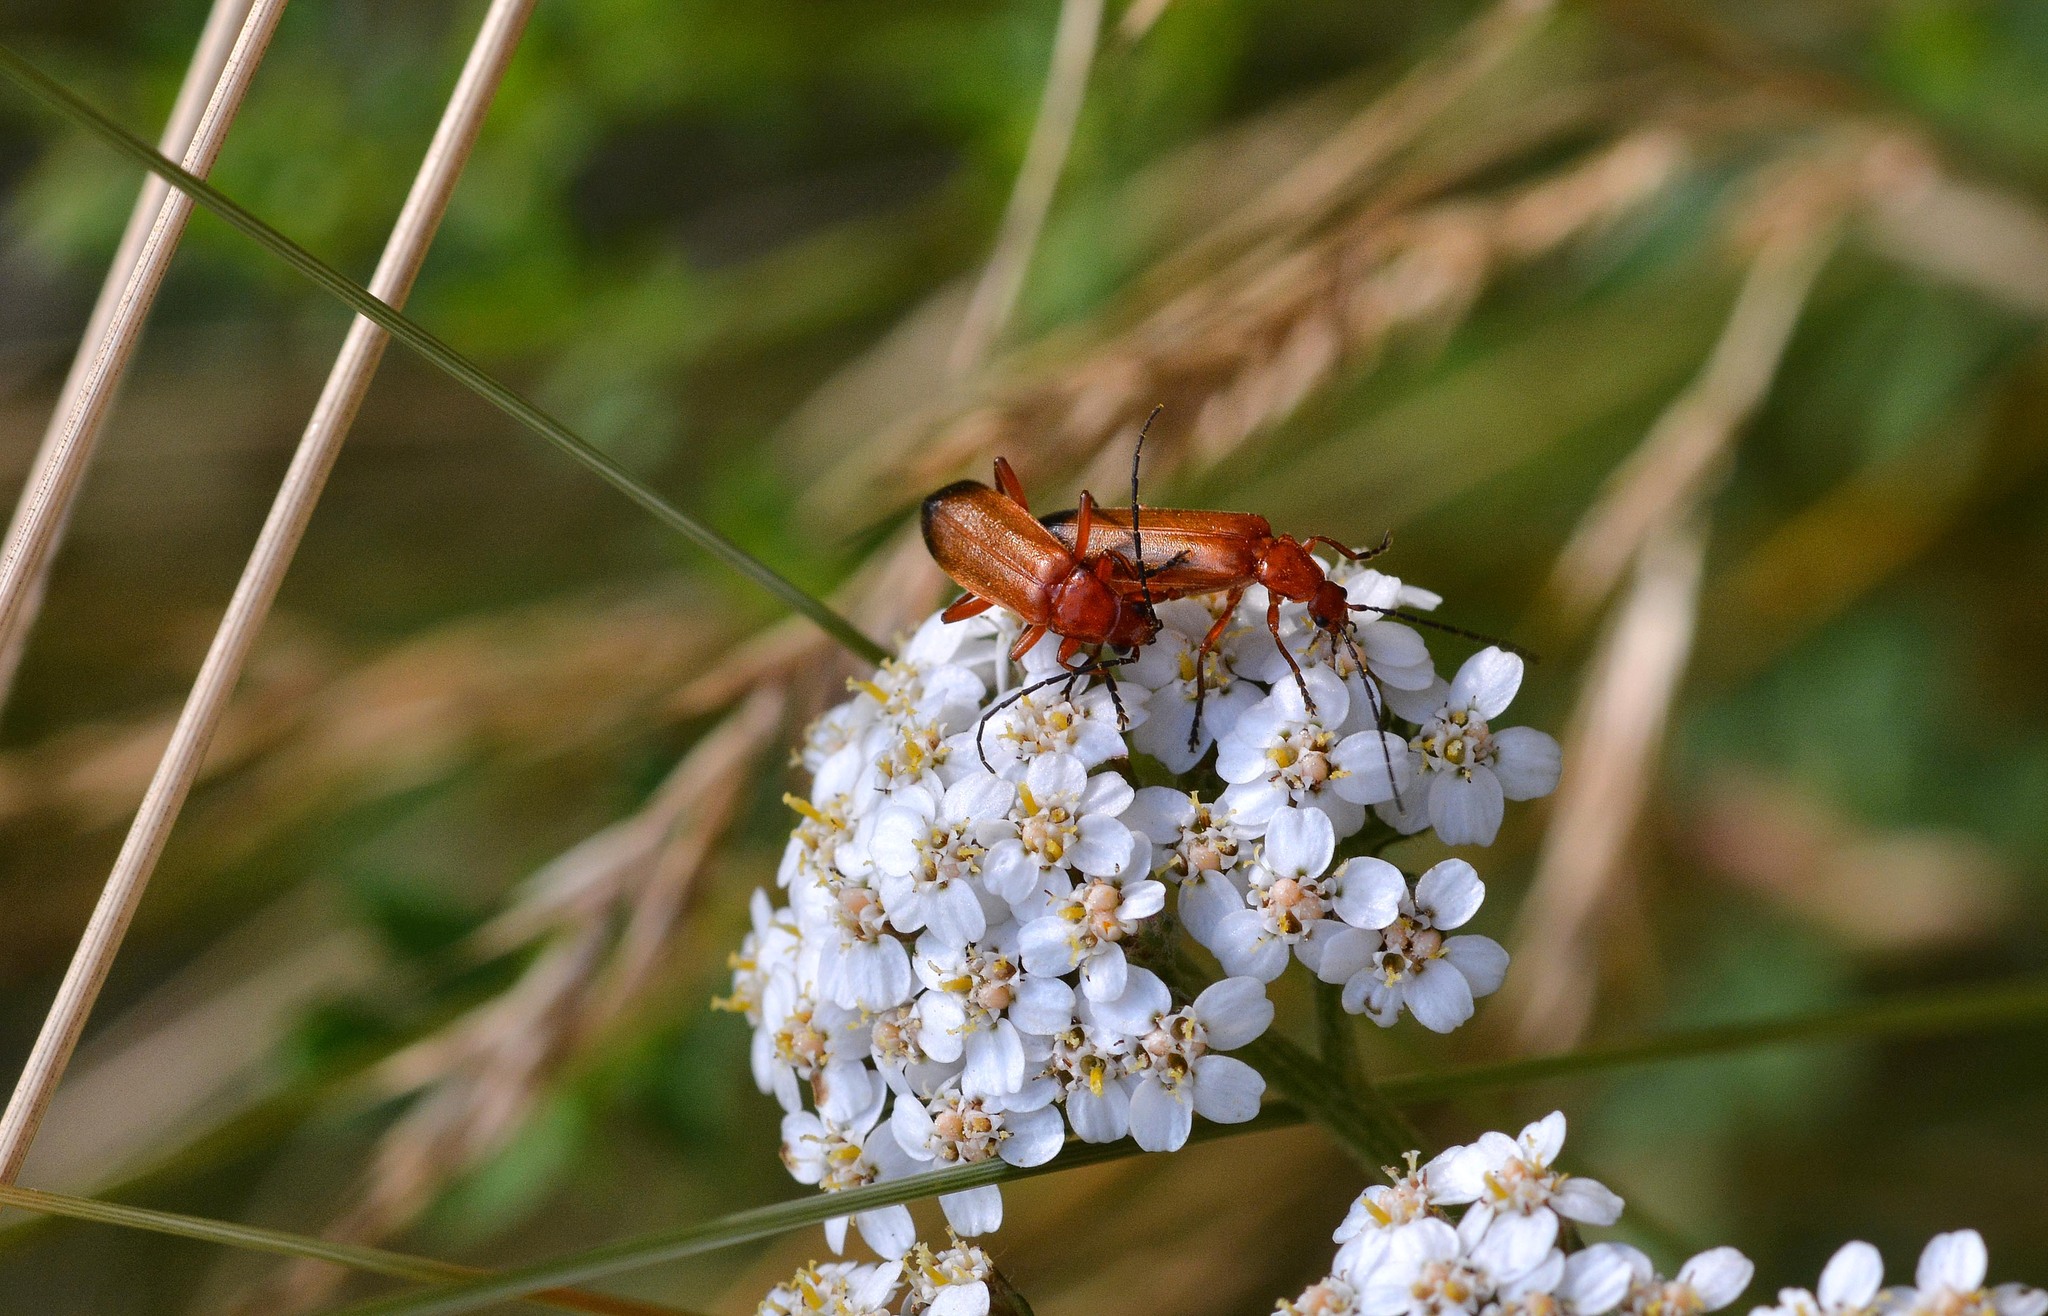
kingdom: Animalia
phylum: Arthropoda
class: Insecta
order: Coleoptera
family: Cantharidae
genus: Rhagonycha
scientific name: Rhagonycha fulva
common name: Common red soldier beetle
